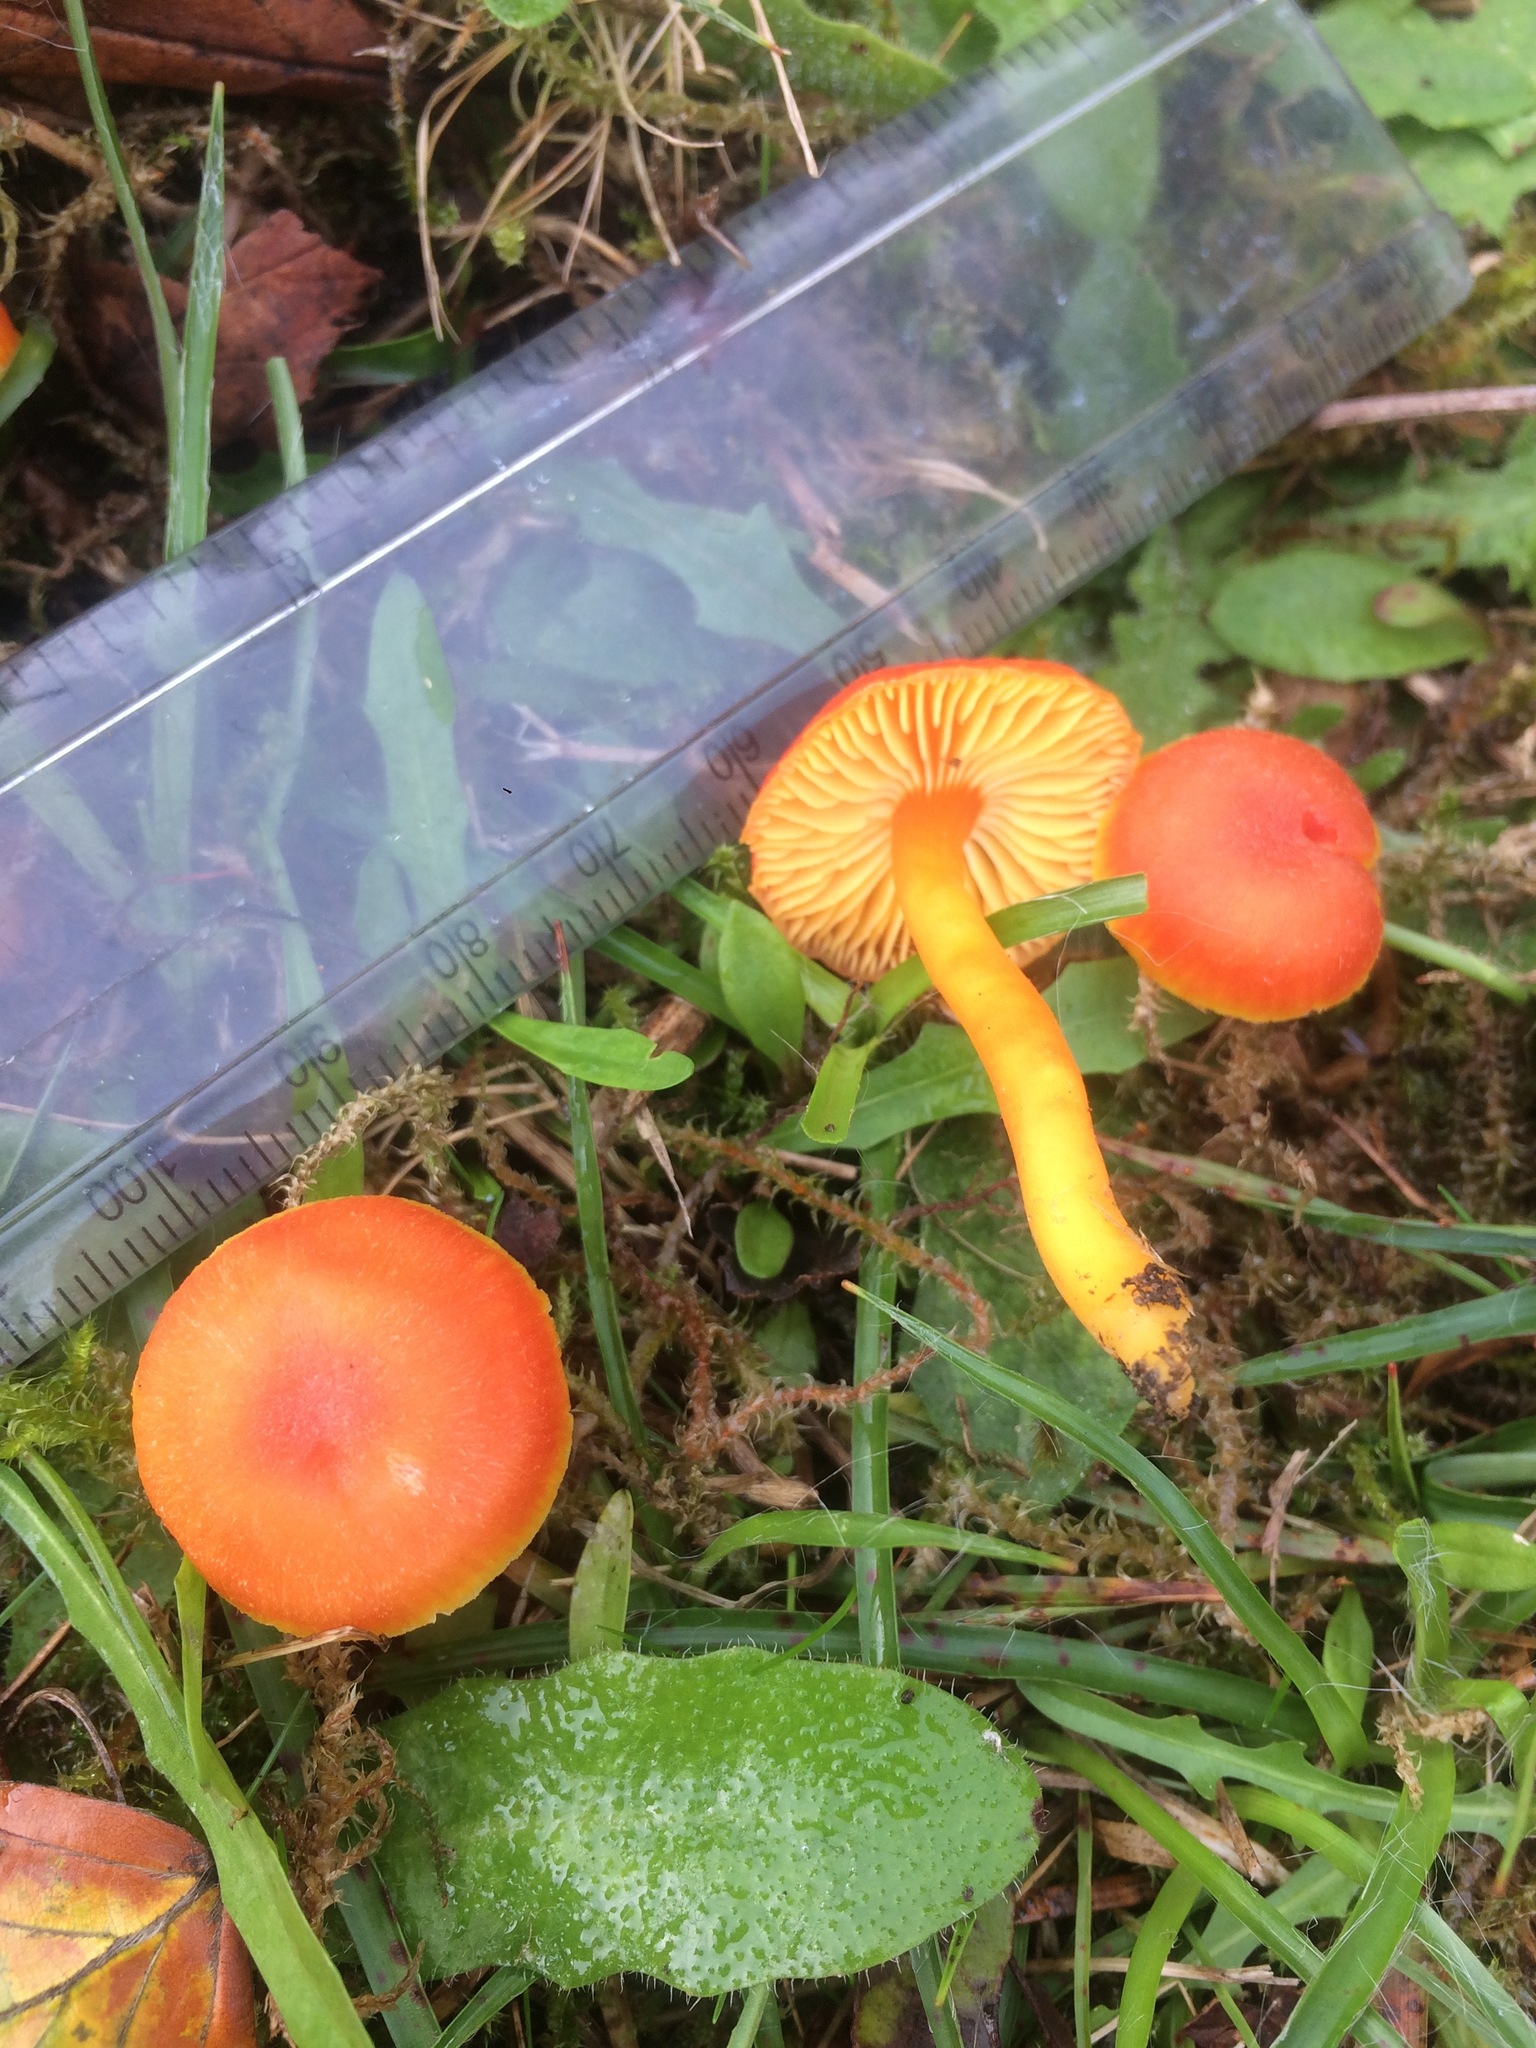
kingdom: Fungi
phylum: Basidiomycota
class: Agaricomycetes
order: Agaricales
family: Hygrophoraceae
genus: Hygrocybe
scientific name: Hygrocybe reidii
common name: Honey waxcap
